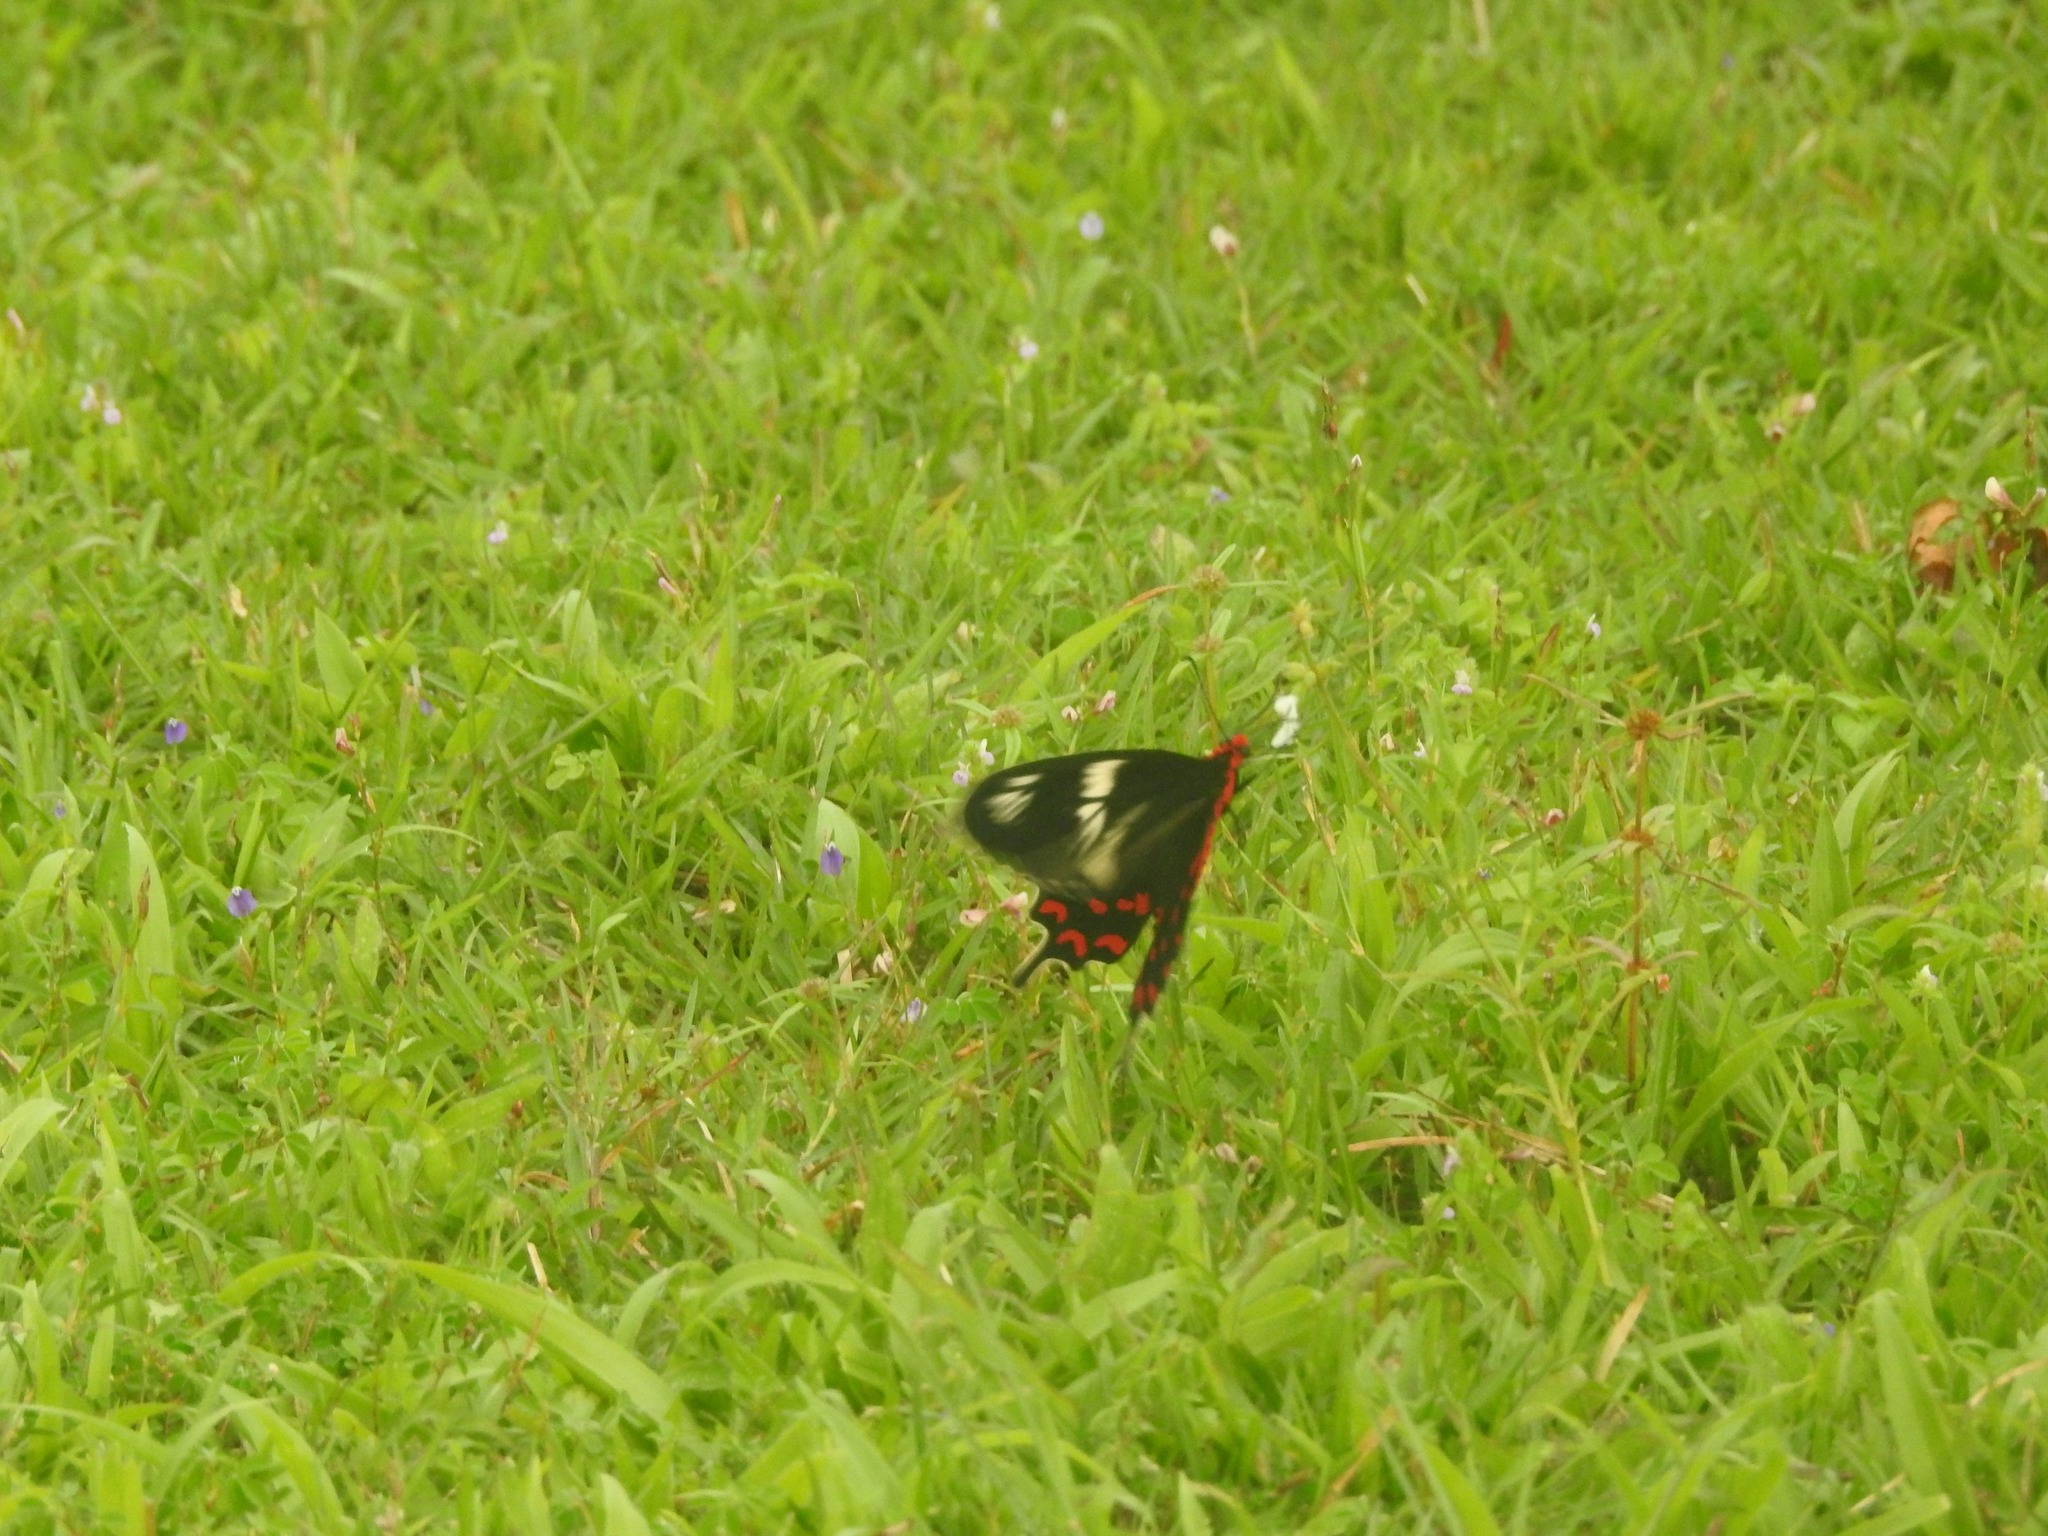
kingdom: Animalia
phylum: Arthropoda
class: Insecta
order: Lepidoptera
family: Papilionidae
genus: Pachliopta
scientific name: Pachliopta hector
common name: Crimson rose
